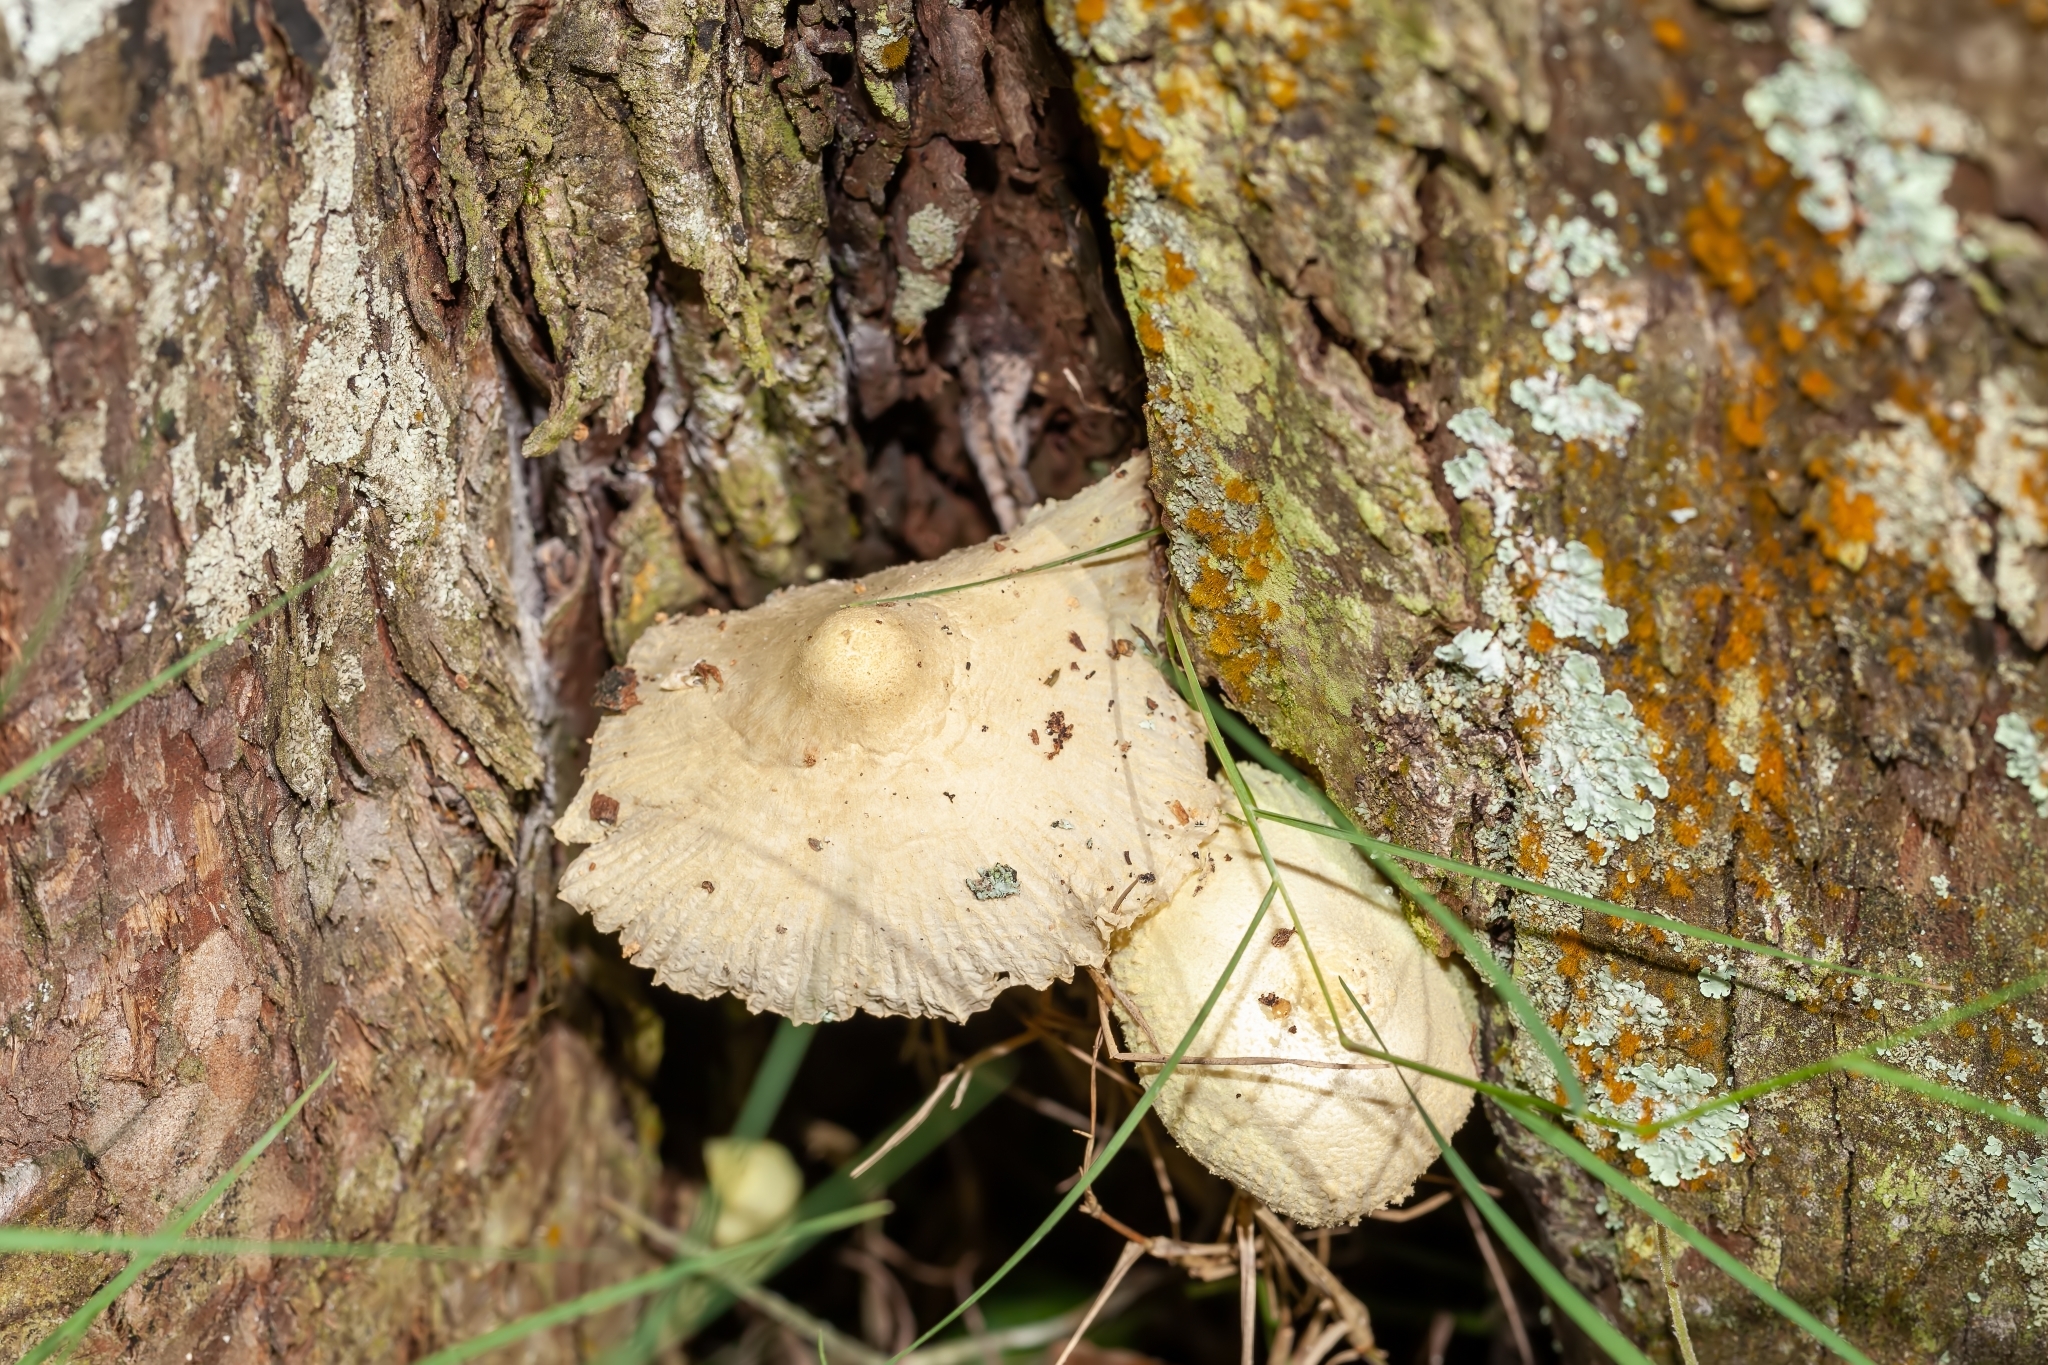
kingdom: Fungi
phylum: Basidiomycota
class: Agaricomycetes
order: Agaricales
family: Agaricaceae
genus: Leucocoprinus
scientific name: Leucocoprinus birnbaumii
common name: Plantpot dapperling
